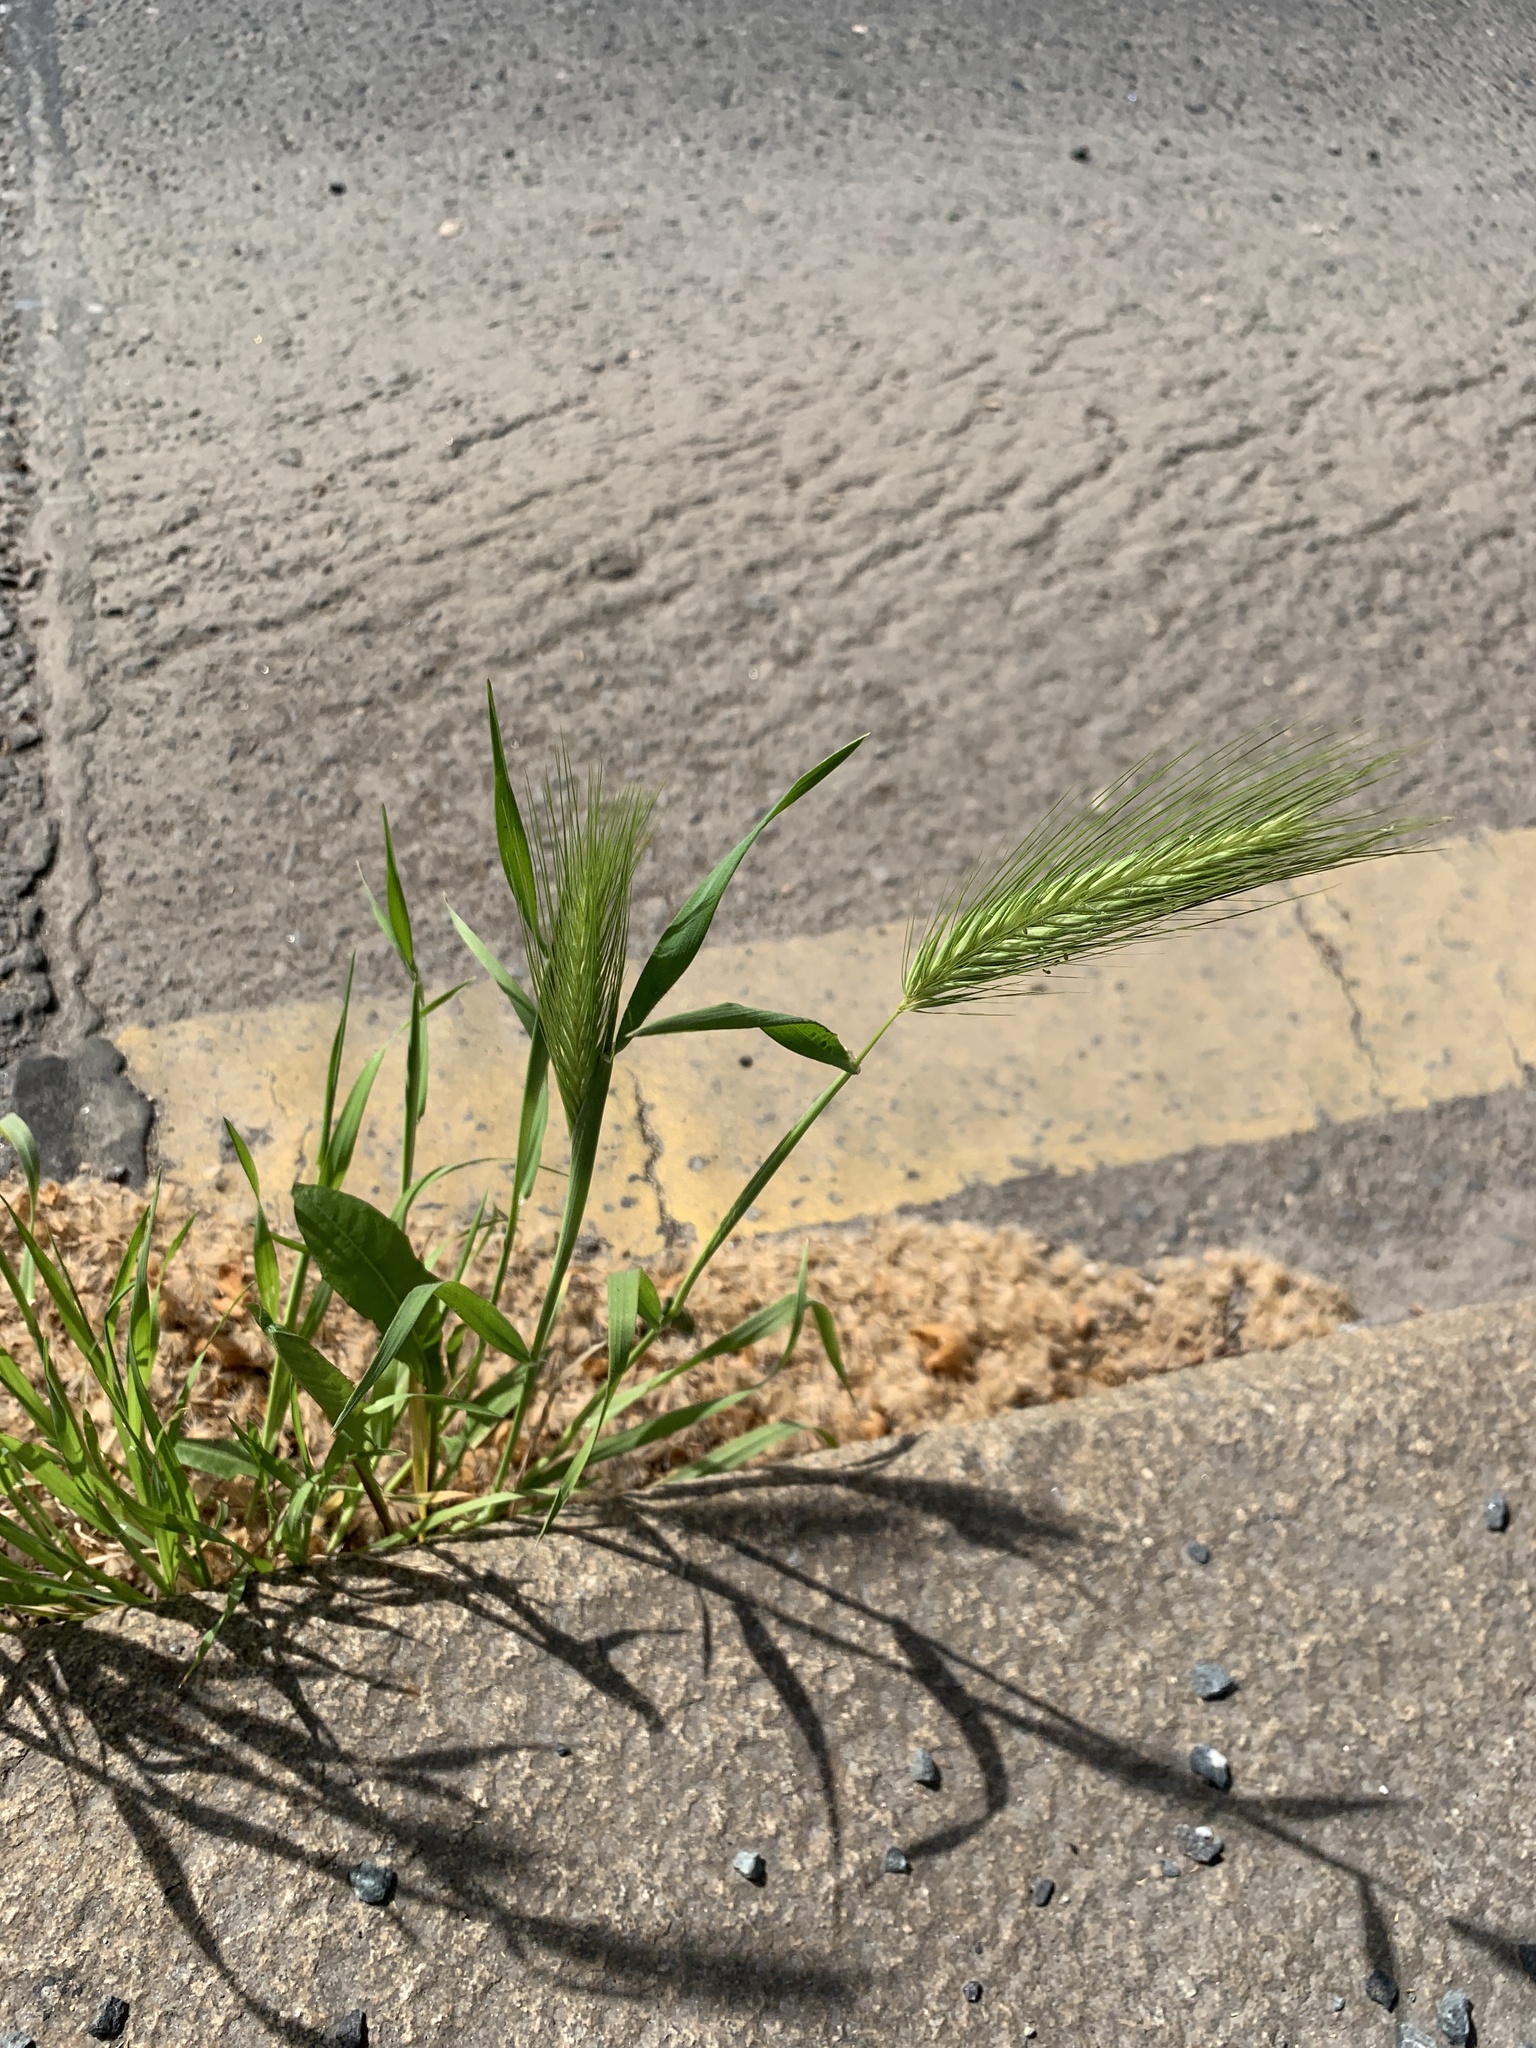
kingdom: Plantae
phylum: Tracheophyta
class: Liliopsida
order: Poales
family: Poaceae
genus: Hordeum
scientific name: Hordeum murinum
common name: Wall barley
